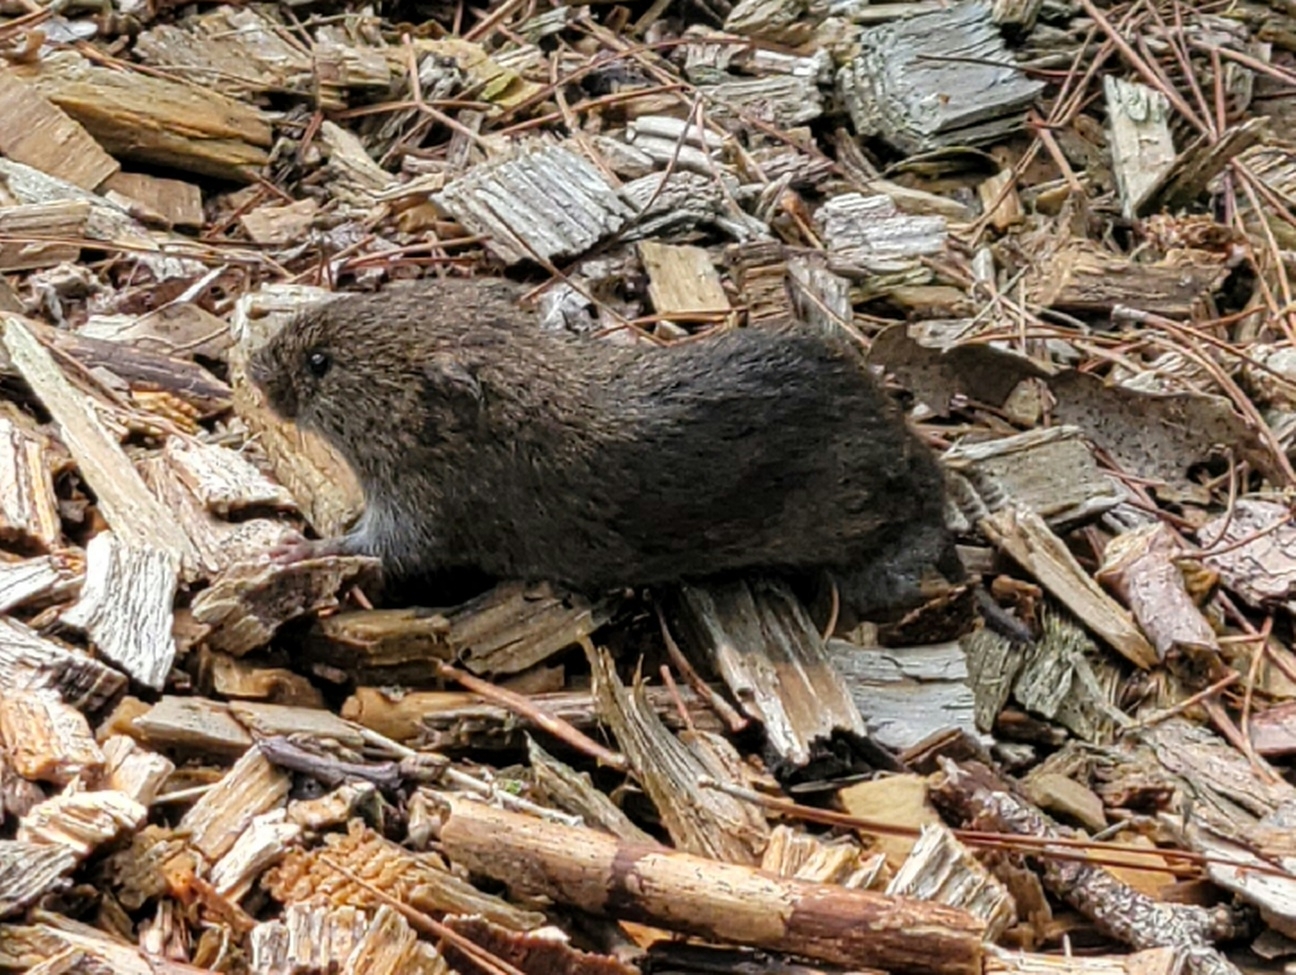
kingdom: Animalia
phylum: Chordata
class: Mammalia
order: Rodentia
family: Cricetidae
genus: Microtus
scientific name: Microtus pennsylvanicus
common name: Meadow vole
